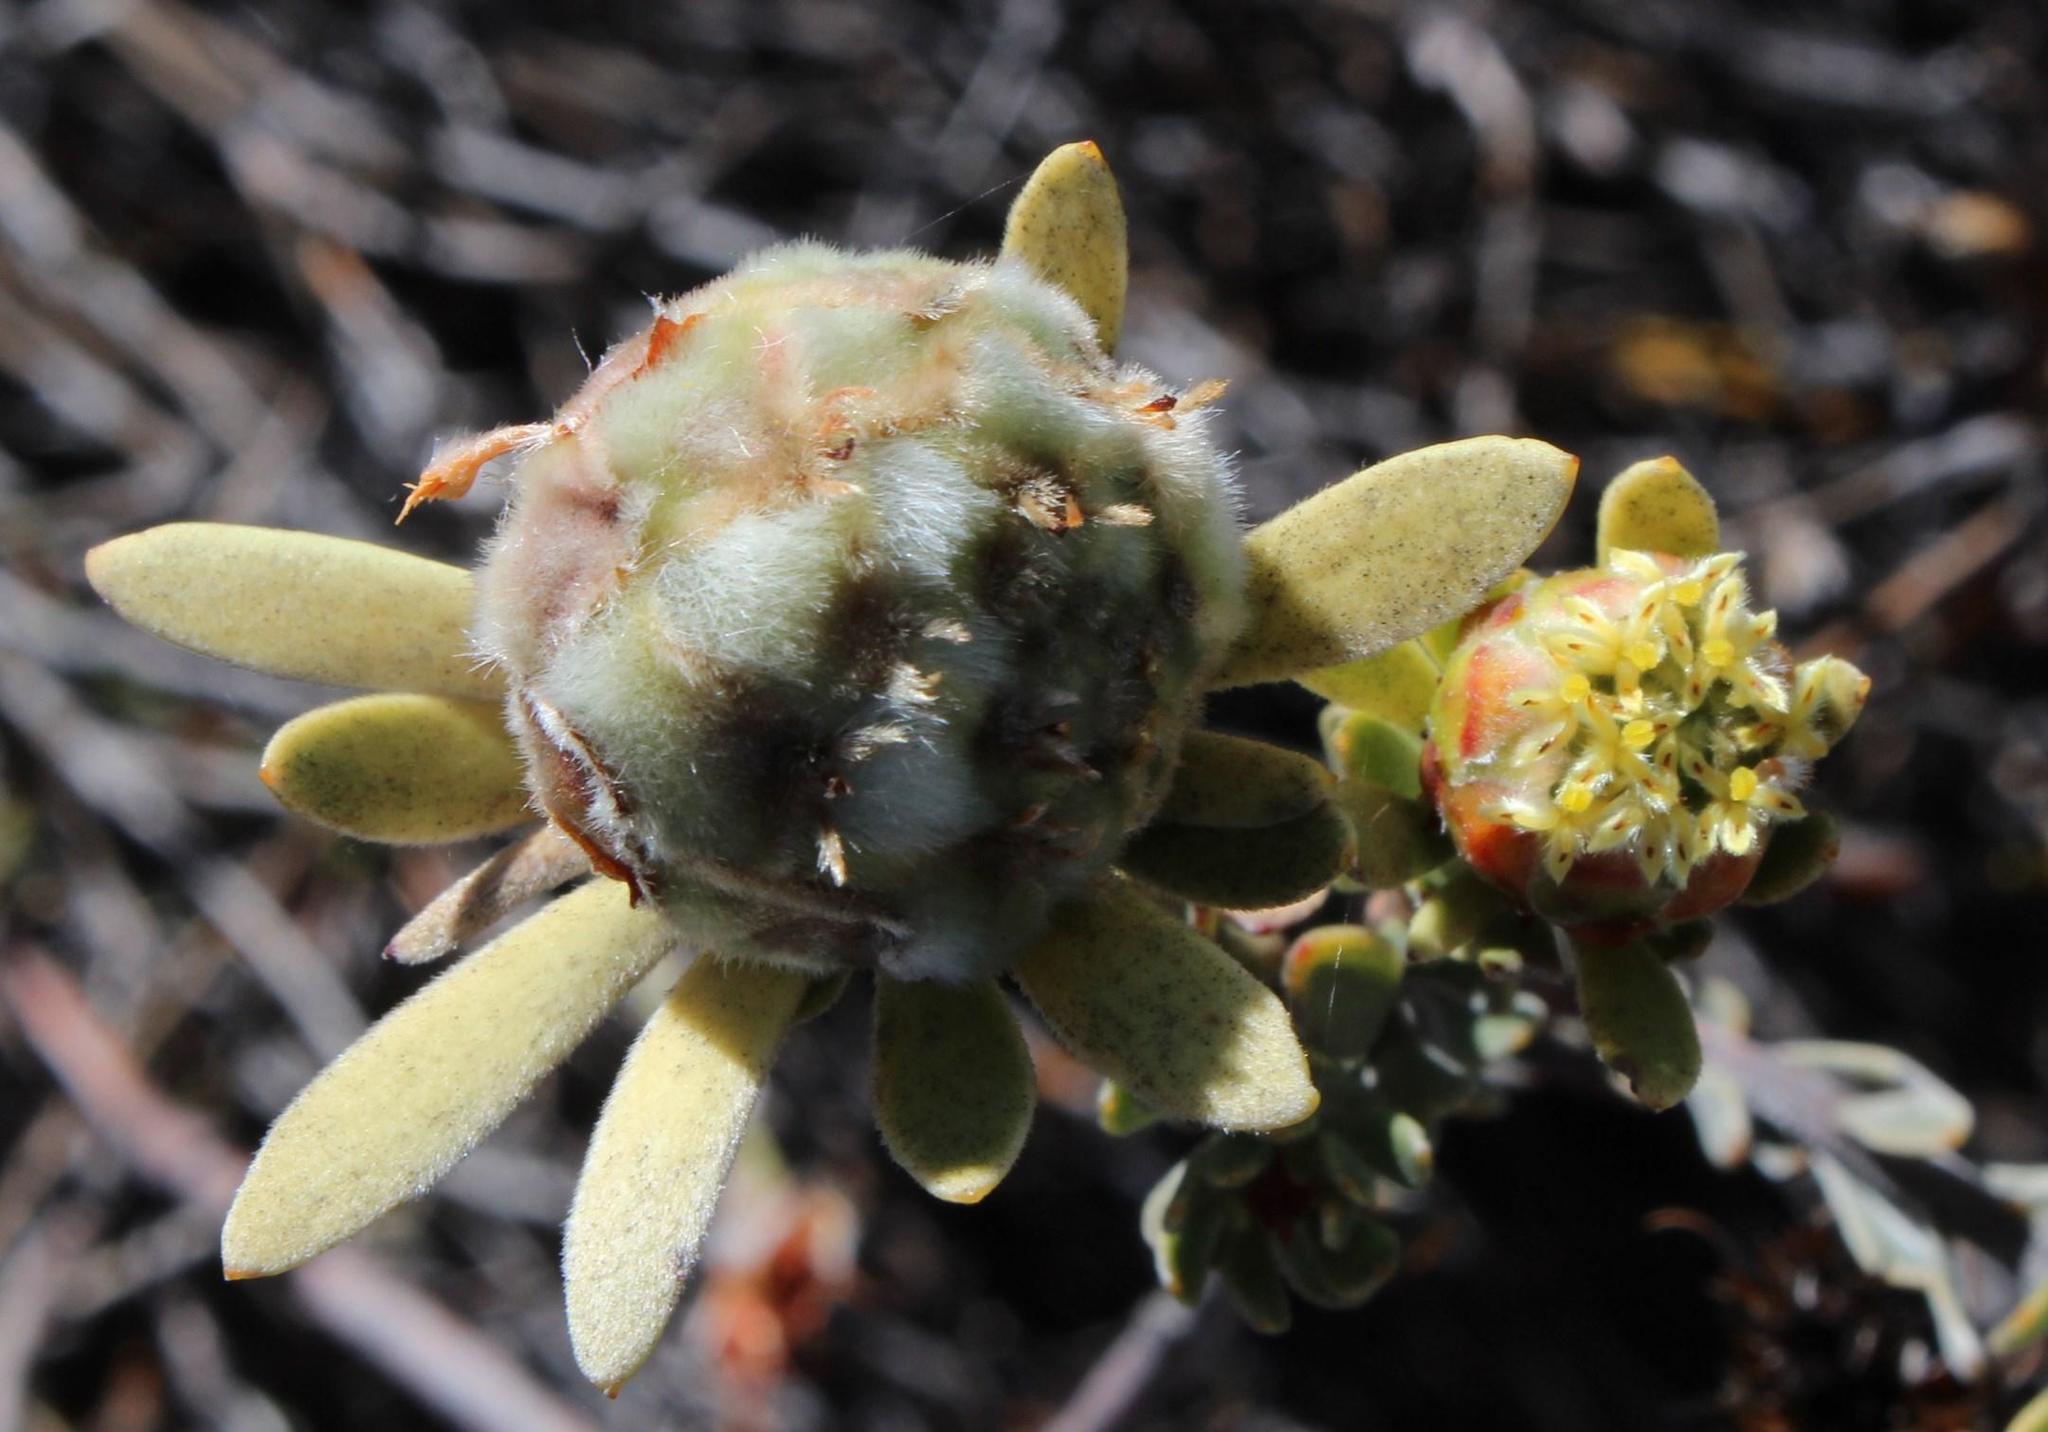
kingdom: Plantae
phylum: Tracheophyta
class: Magnoliopsida
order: Proteales
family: Proteaceae
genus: Leucadendron
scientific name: Leucadendron nitidum
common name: Bokkeveld conebush
